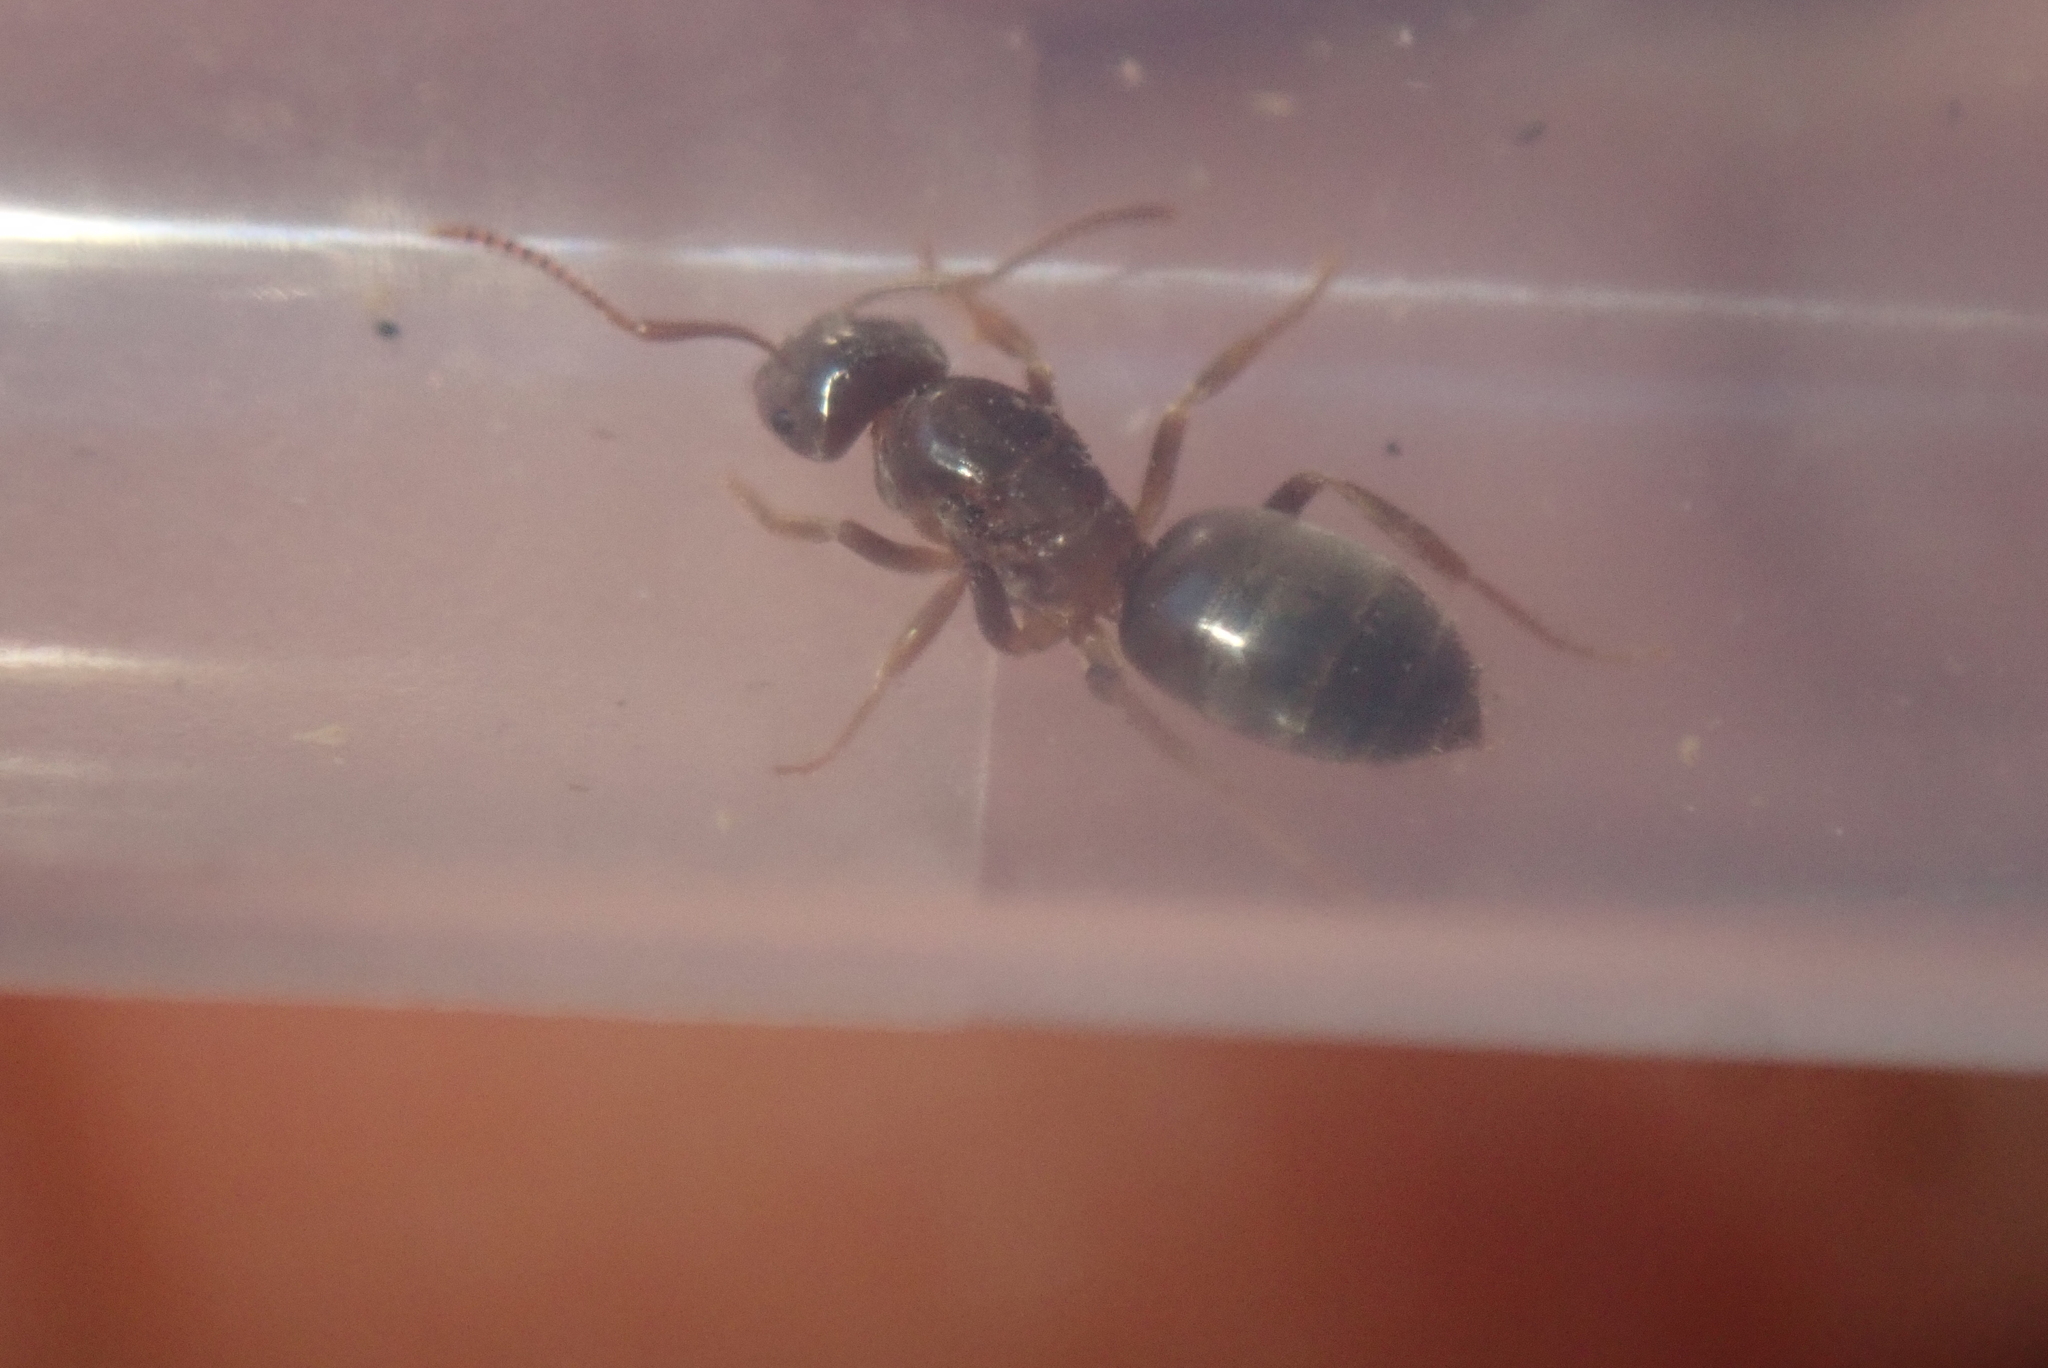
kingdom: Animalia
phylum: Arthropoda
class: Insecta
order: Hymenoptera
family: Formicidae
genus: Lasius
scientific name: Lasius aphidicola
